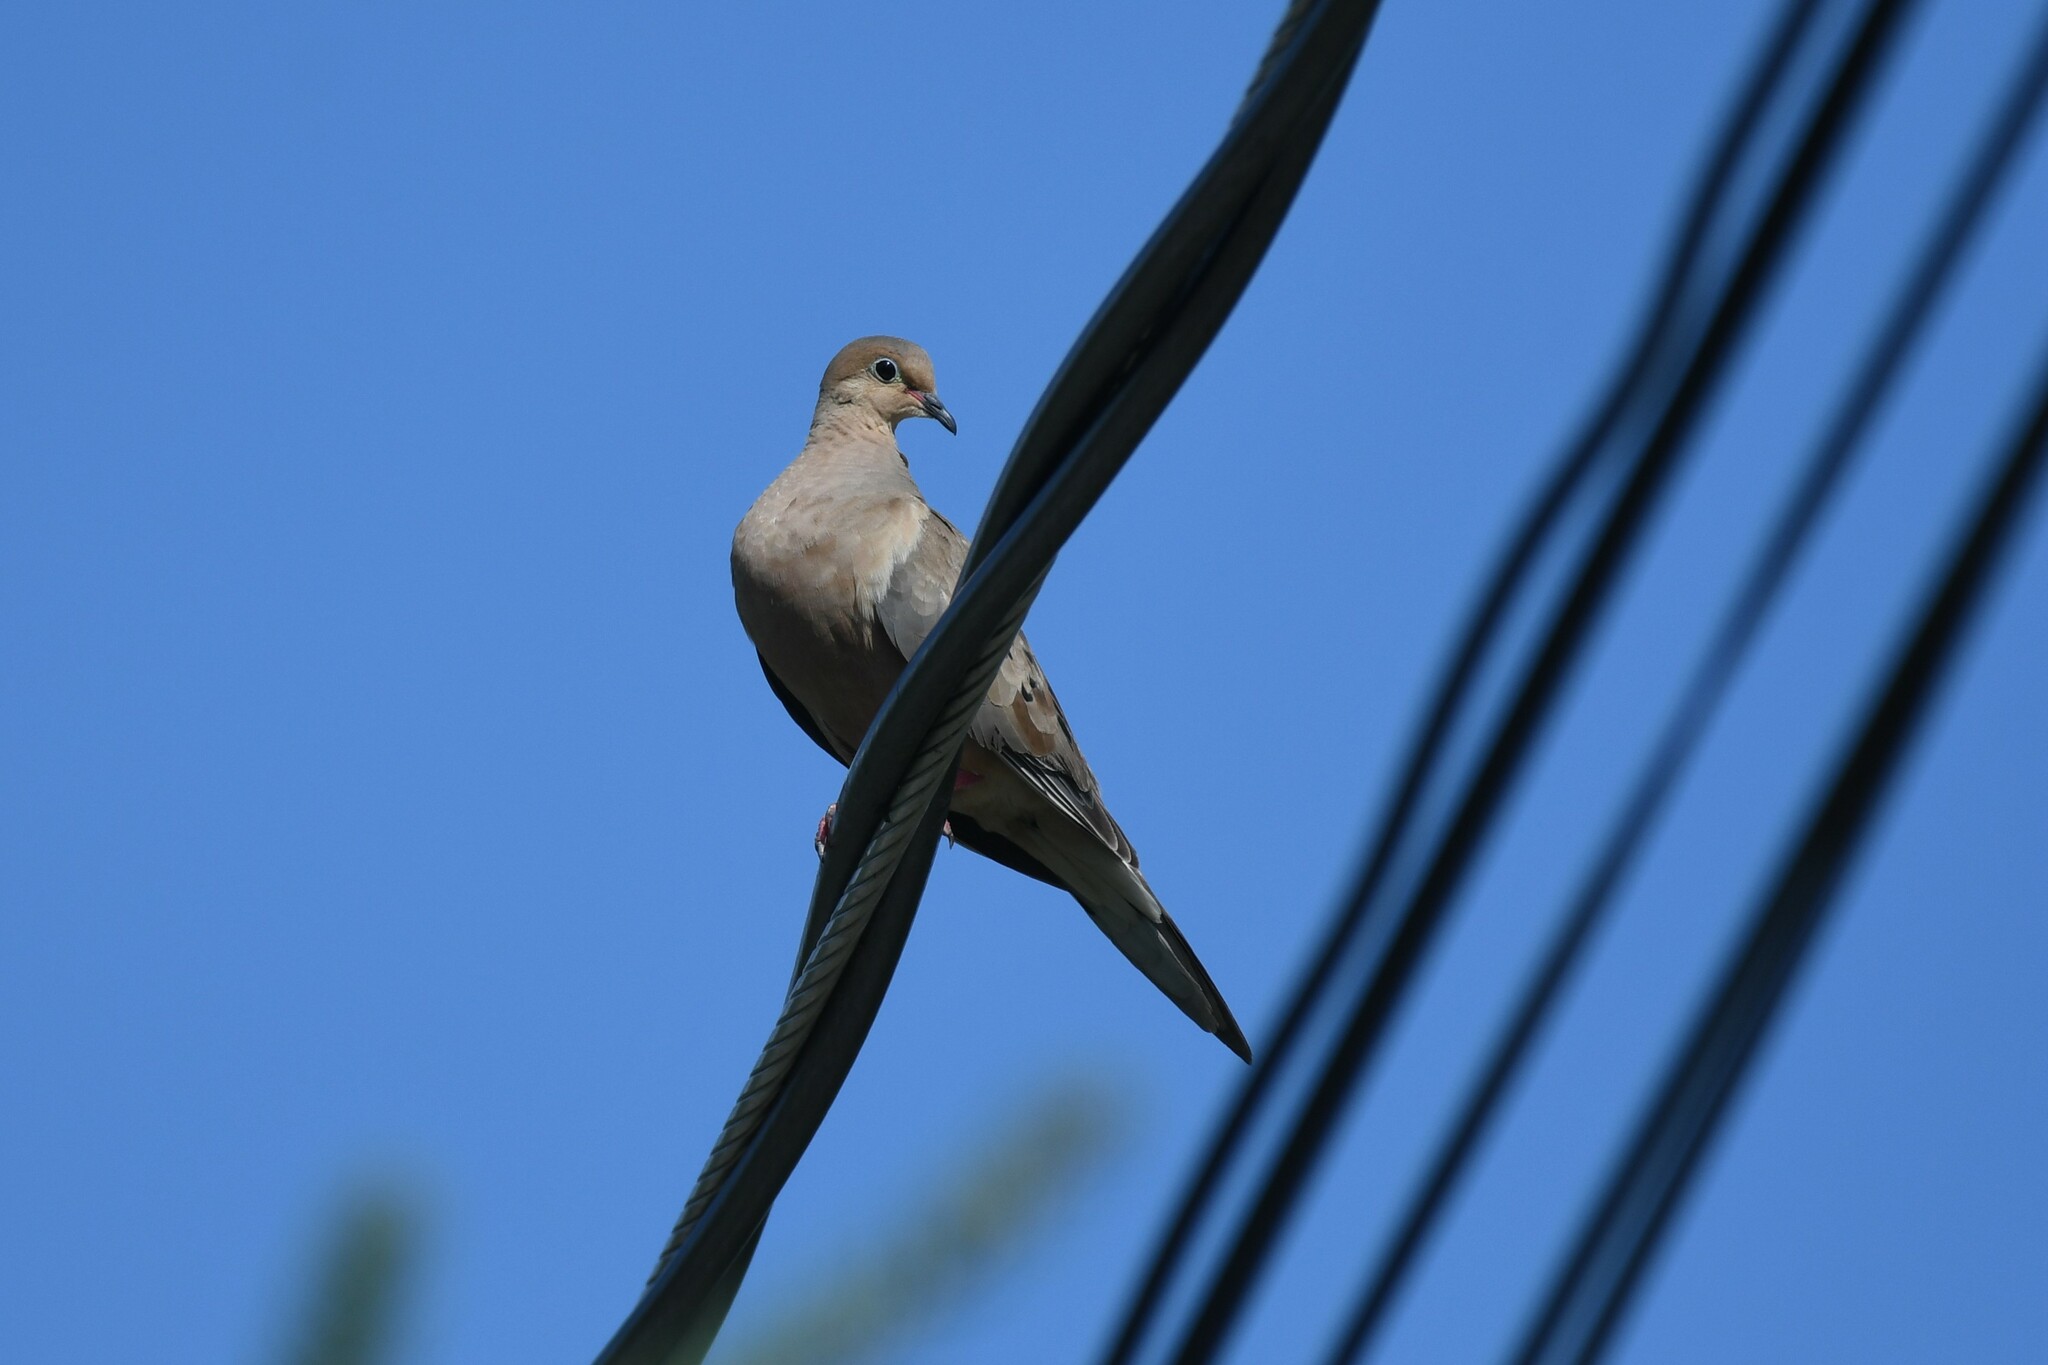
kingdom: Animalia
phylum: Chordata
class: Aves
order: Columbiformes
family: Columbidae
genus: Zenaida
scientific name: Zenaida macroura
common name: Mourning dove
